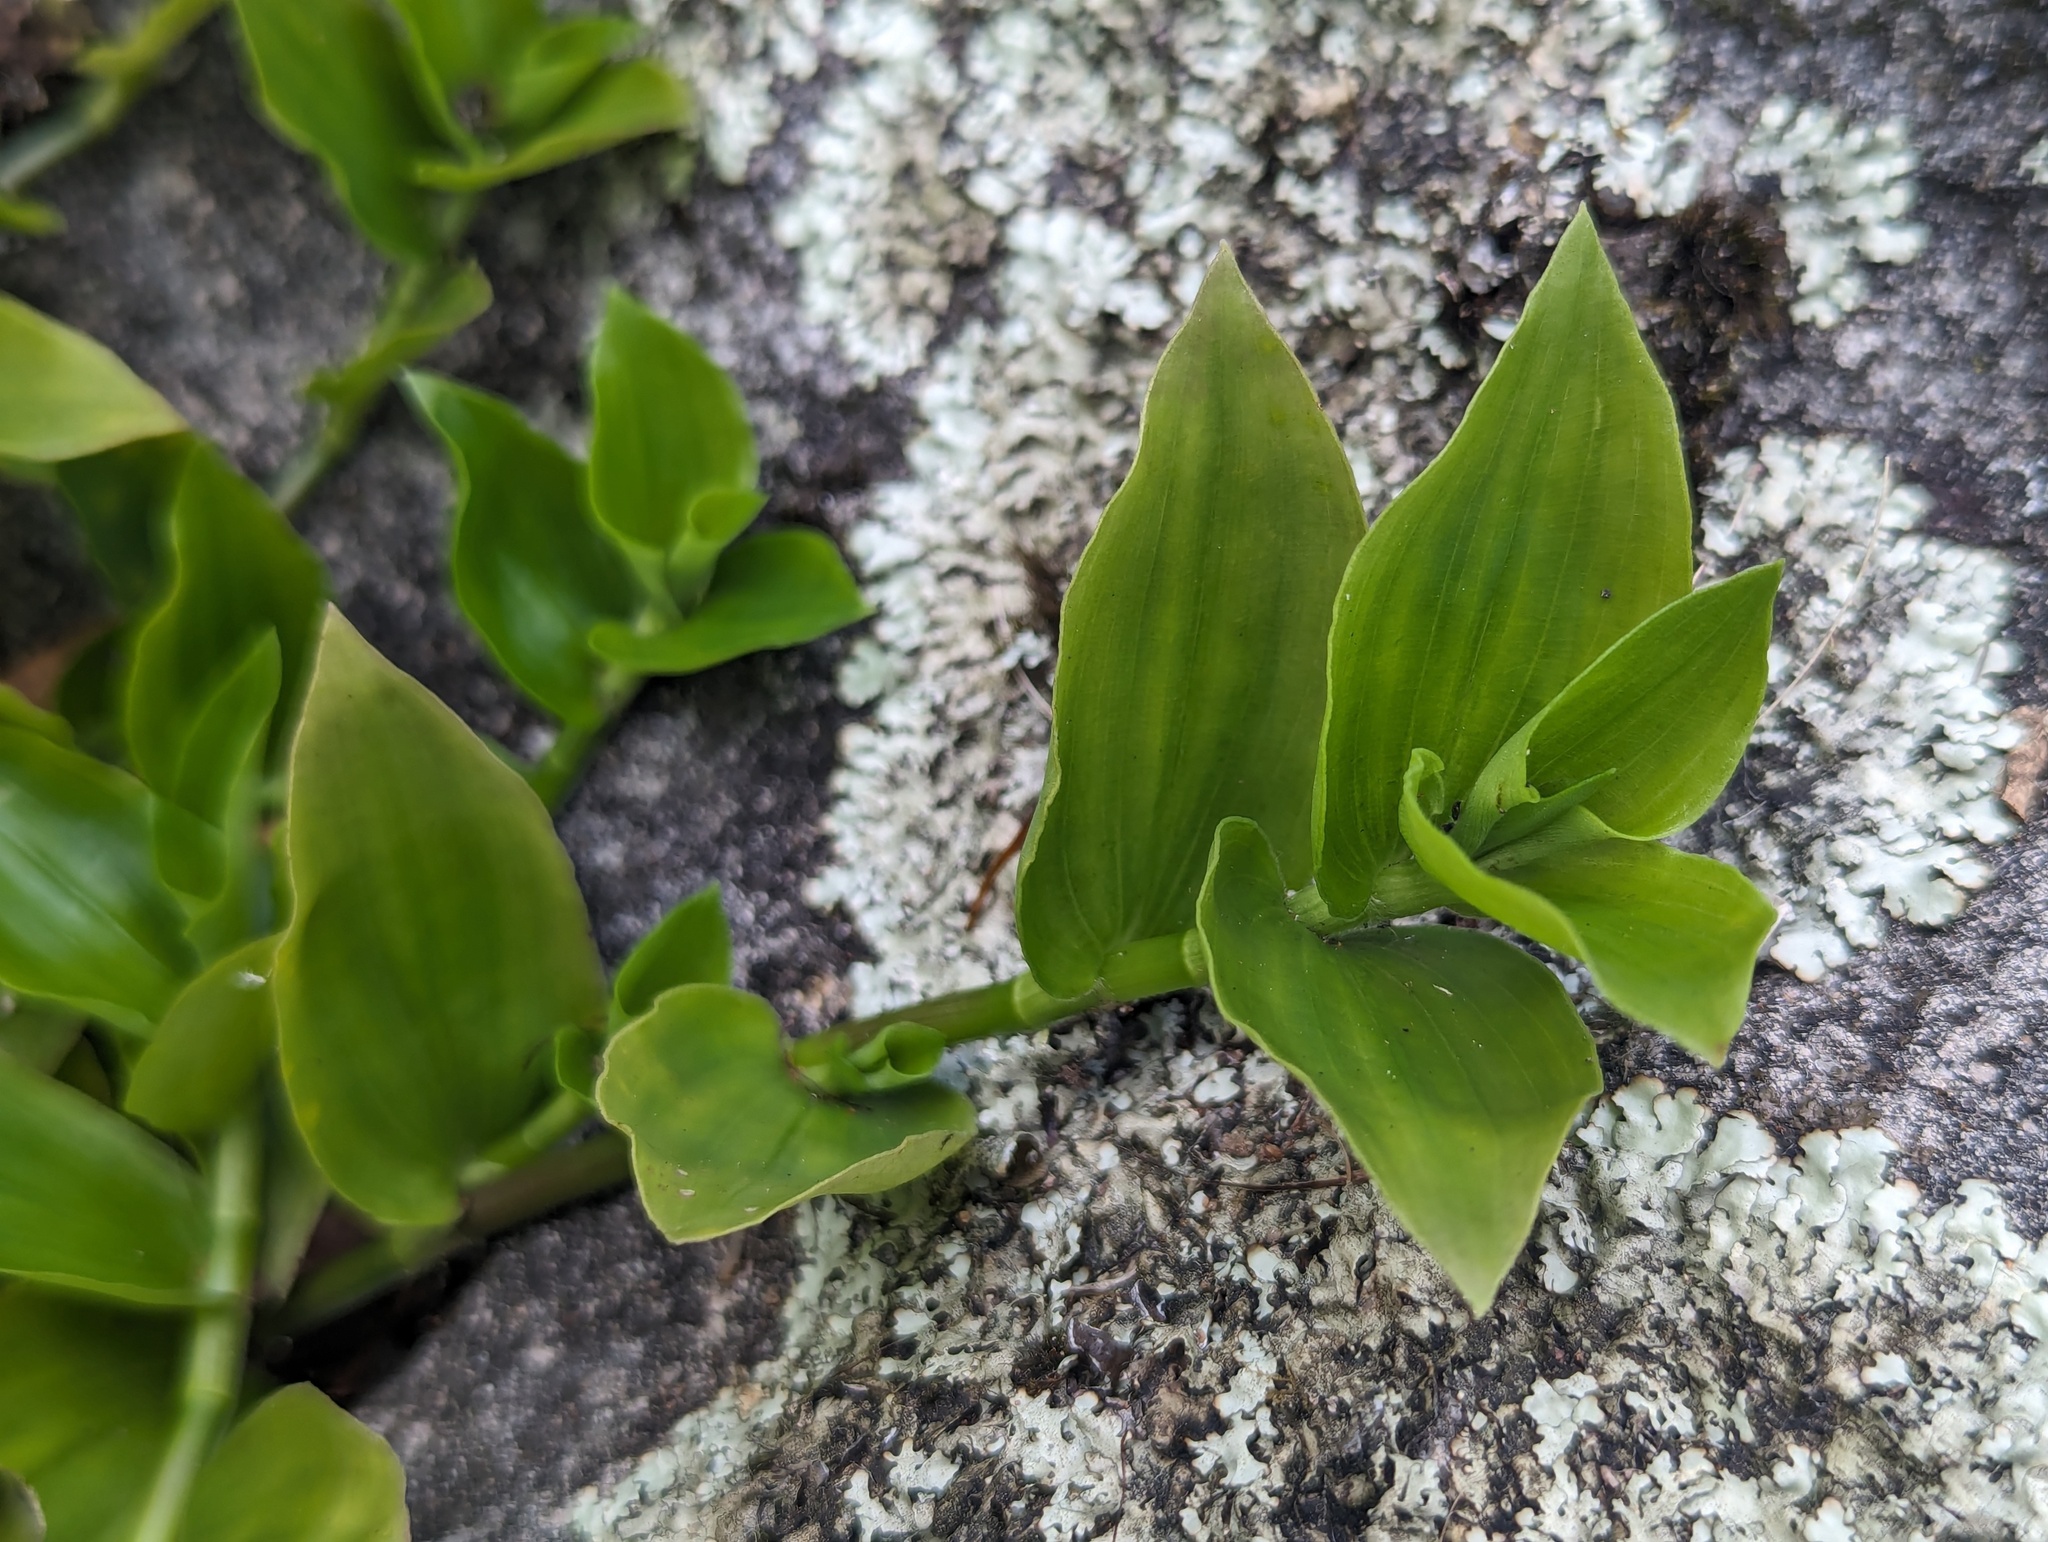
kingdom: Plantae
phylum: Tracheophyta
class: Liliopsida
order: Commelinales
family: Commelinaceae
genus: Tradescantia
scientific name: Tradescantia fluminensis
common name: Wandering-jew
